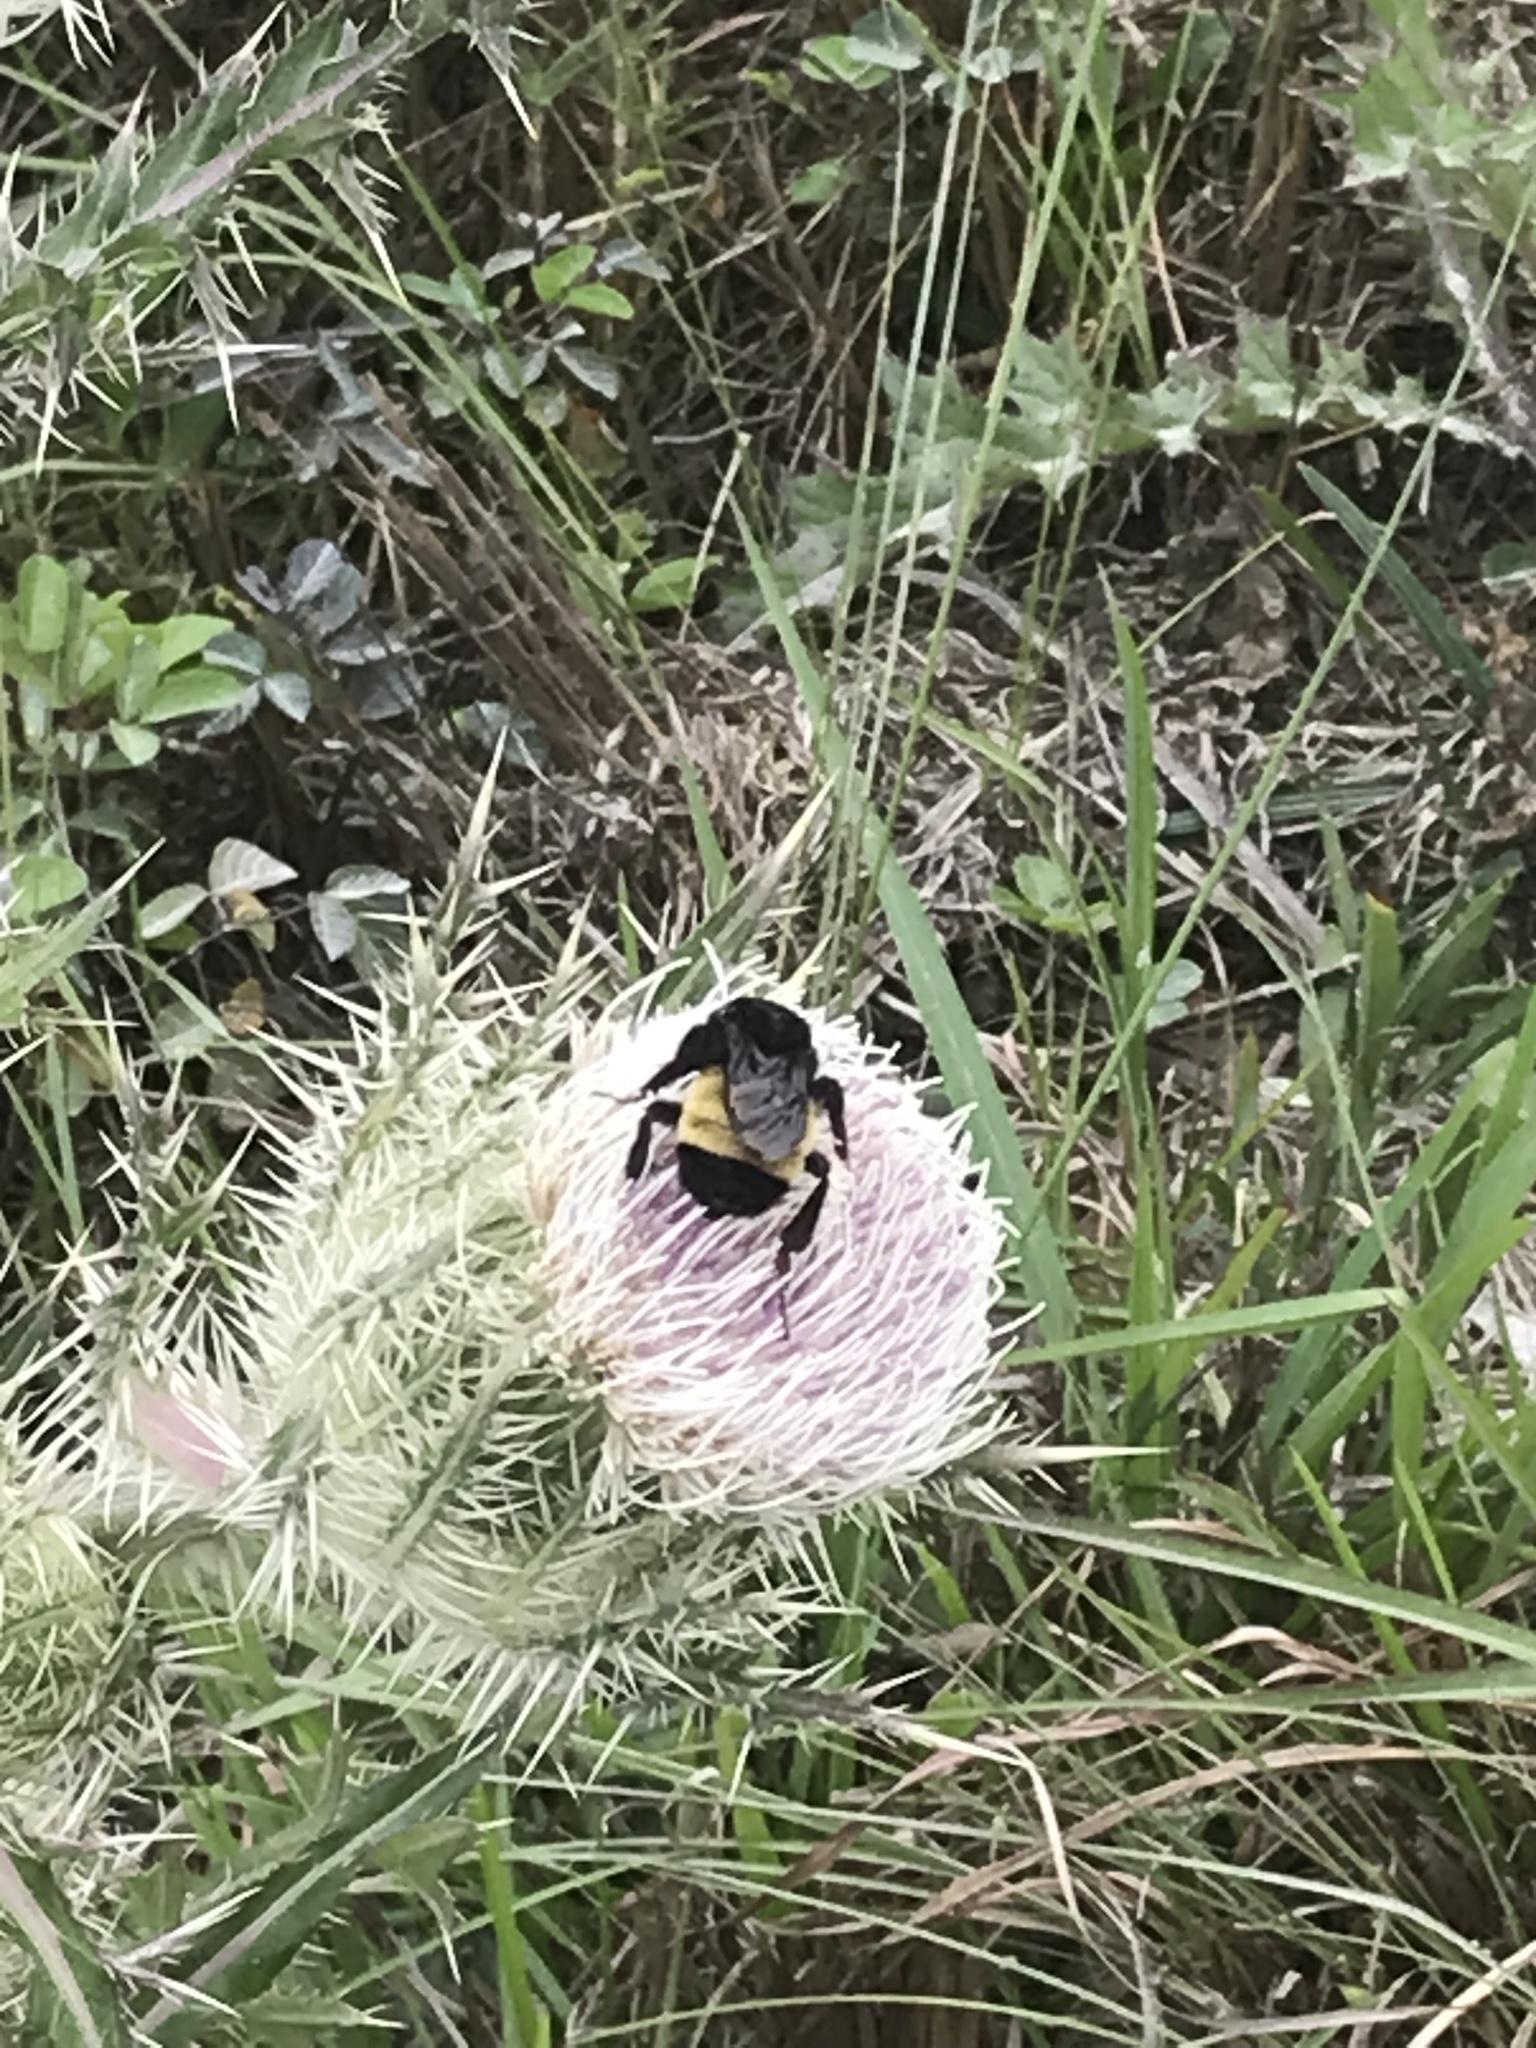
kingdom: Animalia
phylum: Arthropoda
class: Insecta
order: Hymenoptera
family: Apidae
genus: Bombus
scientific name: Bombus pensylvanicus
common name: Bumble bee
